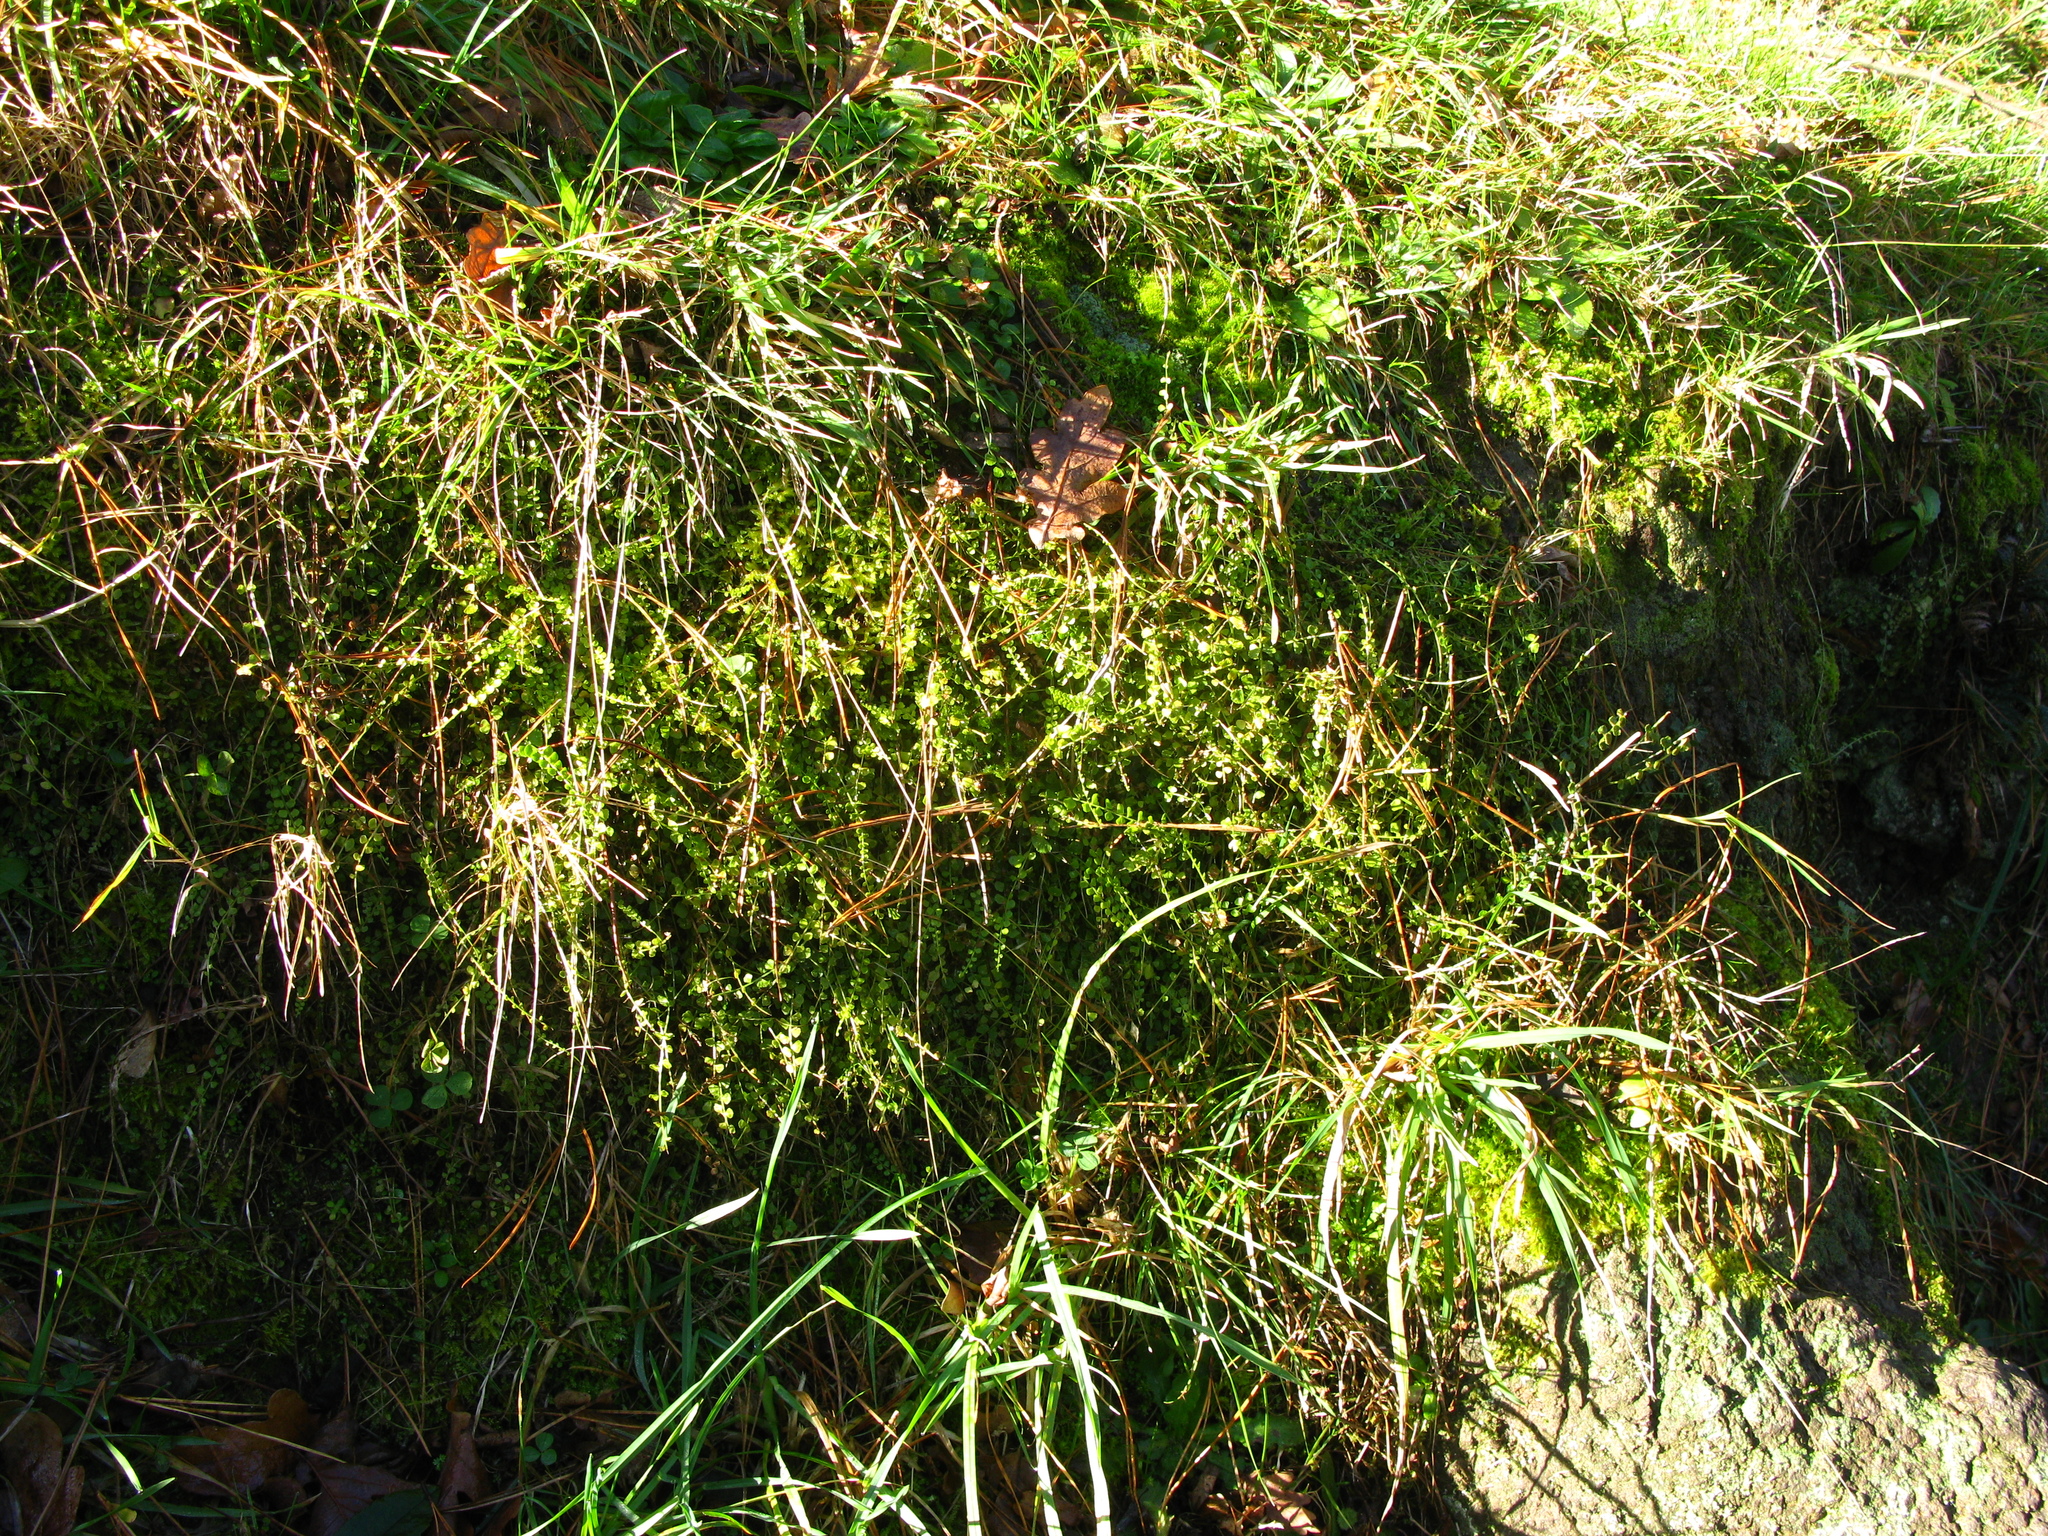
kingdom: Plantae
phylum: Tracheophyta
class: Polypodiopsida
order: Polypodiales
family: Aspleniaceae
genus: Asplenium
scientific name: Asplenium flabellifolium
